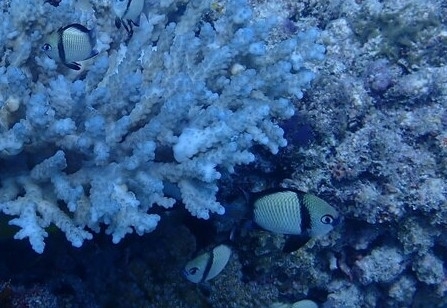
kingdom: Animalia
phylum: Chordata
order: Perciformes
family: Pomacentridae
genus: Dascyllus
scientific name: Dascyllus reticulatus
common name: Reticulated dascyllus
